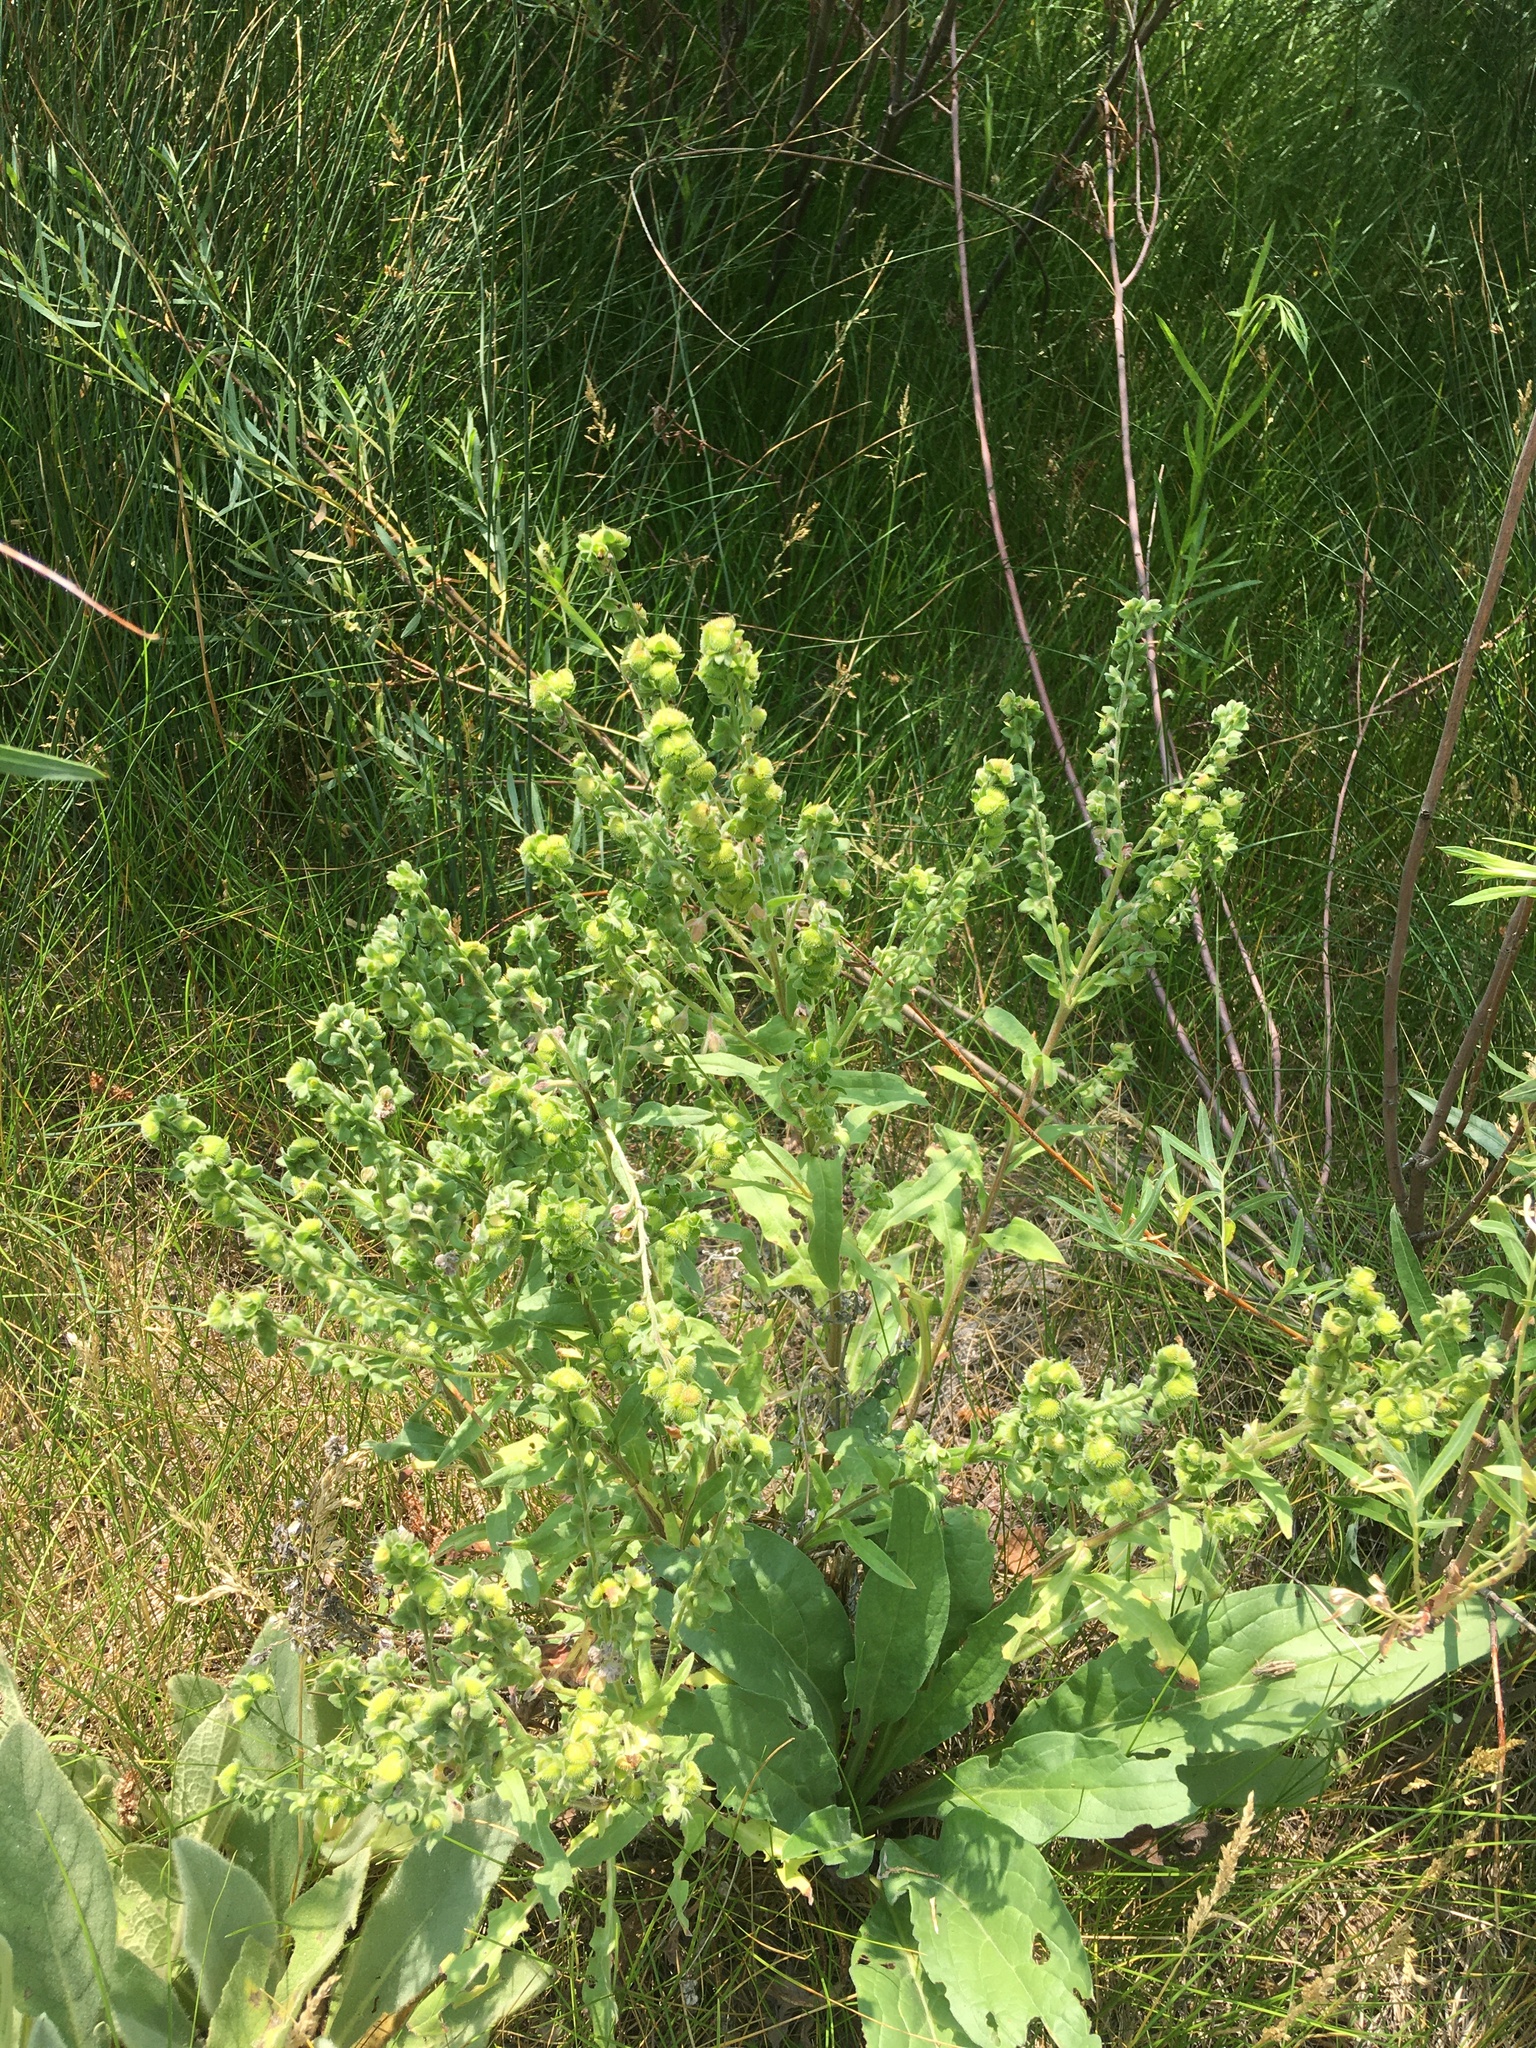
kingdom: Plantae
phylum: Tracheophyta
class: Magnoliopsida
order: Boraginales
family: Boraginaceae
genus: Cynoglossum
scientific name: Cynoglossum officinale
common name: Hound's-tongue
